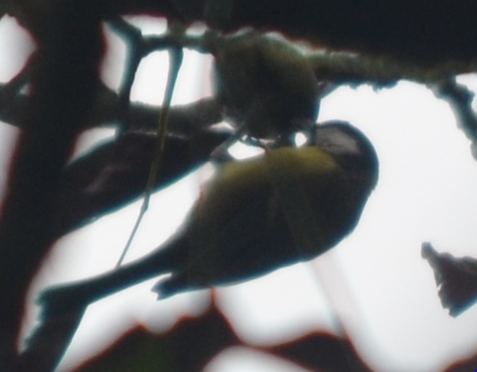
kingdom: Animalia
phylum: Chordata
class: Aves
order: Passeriformes
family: Paridae
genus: Cyanistes
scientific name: Cyanistes caeruleus
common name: Eurasian blue tit
